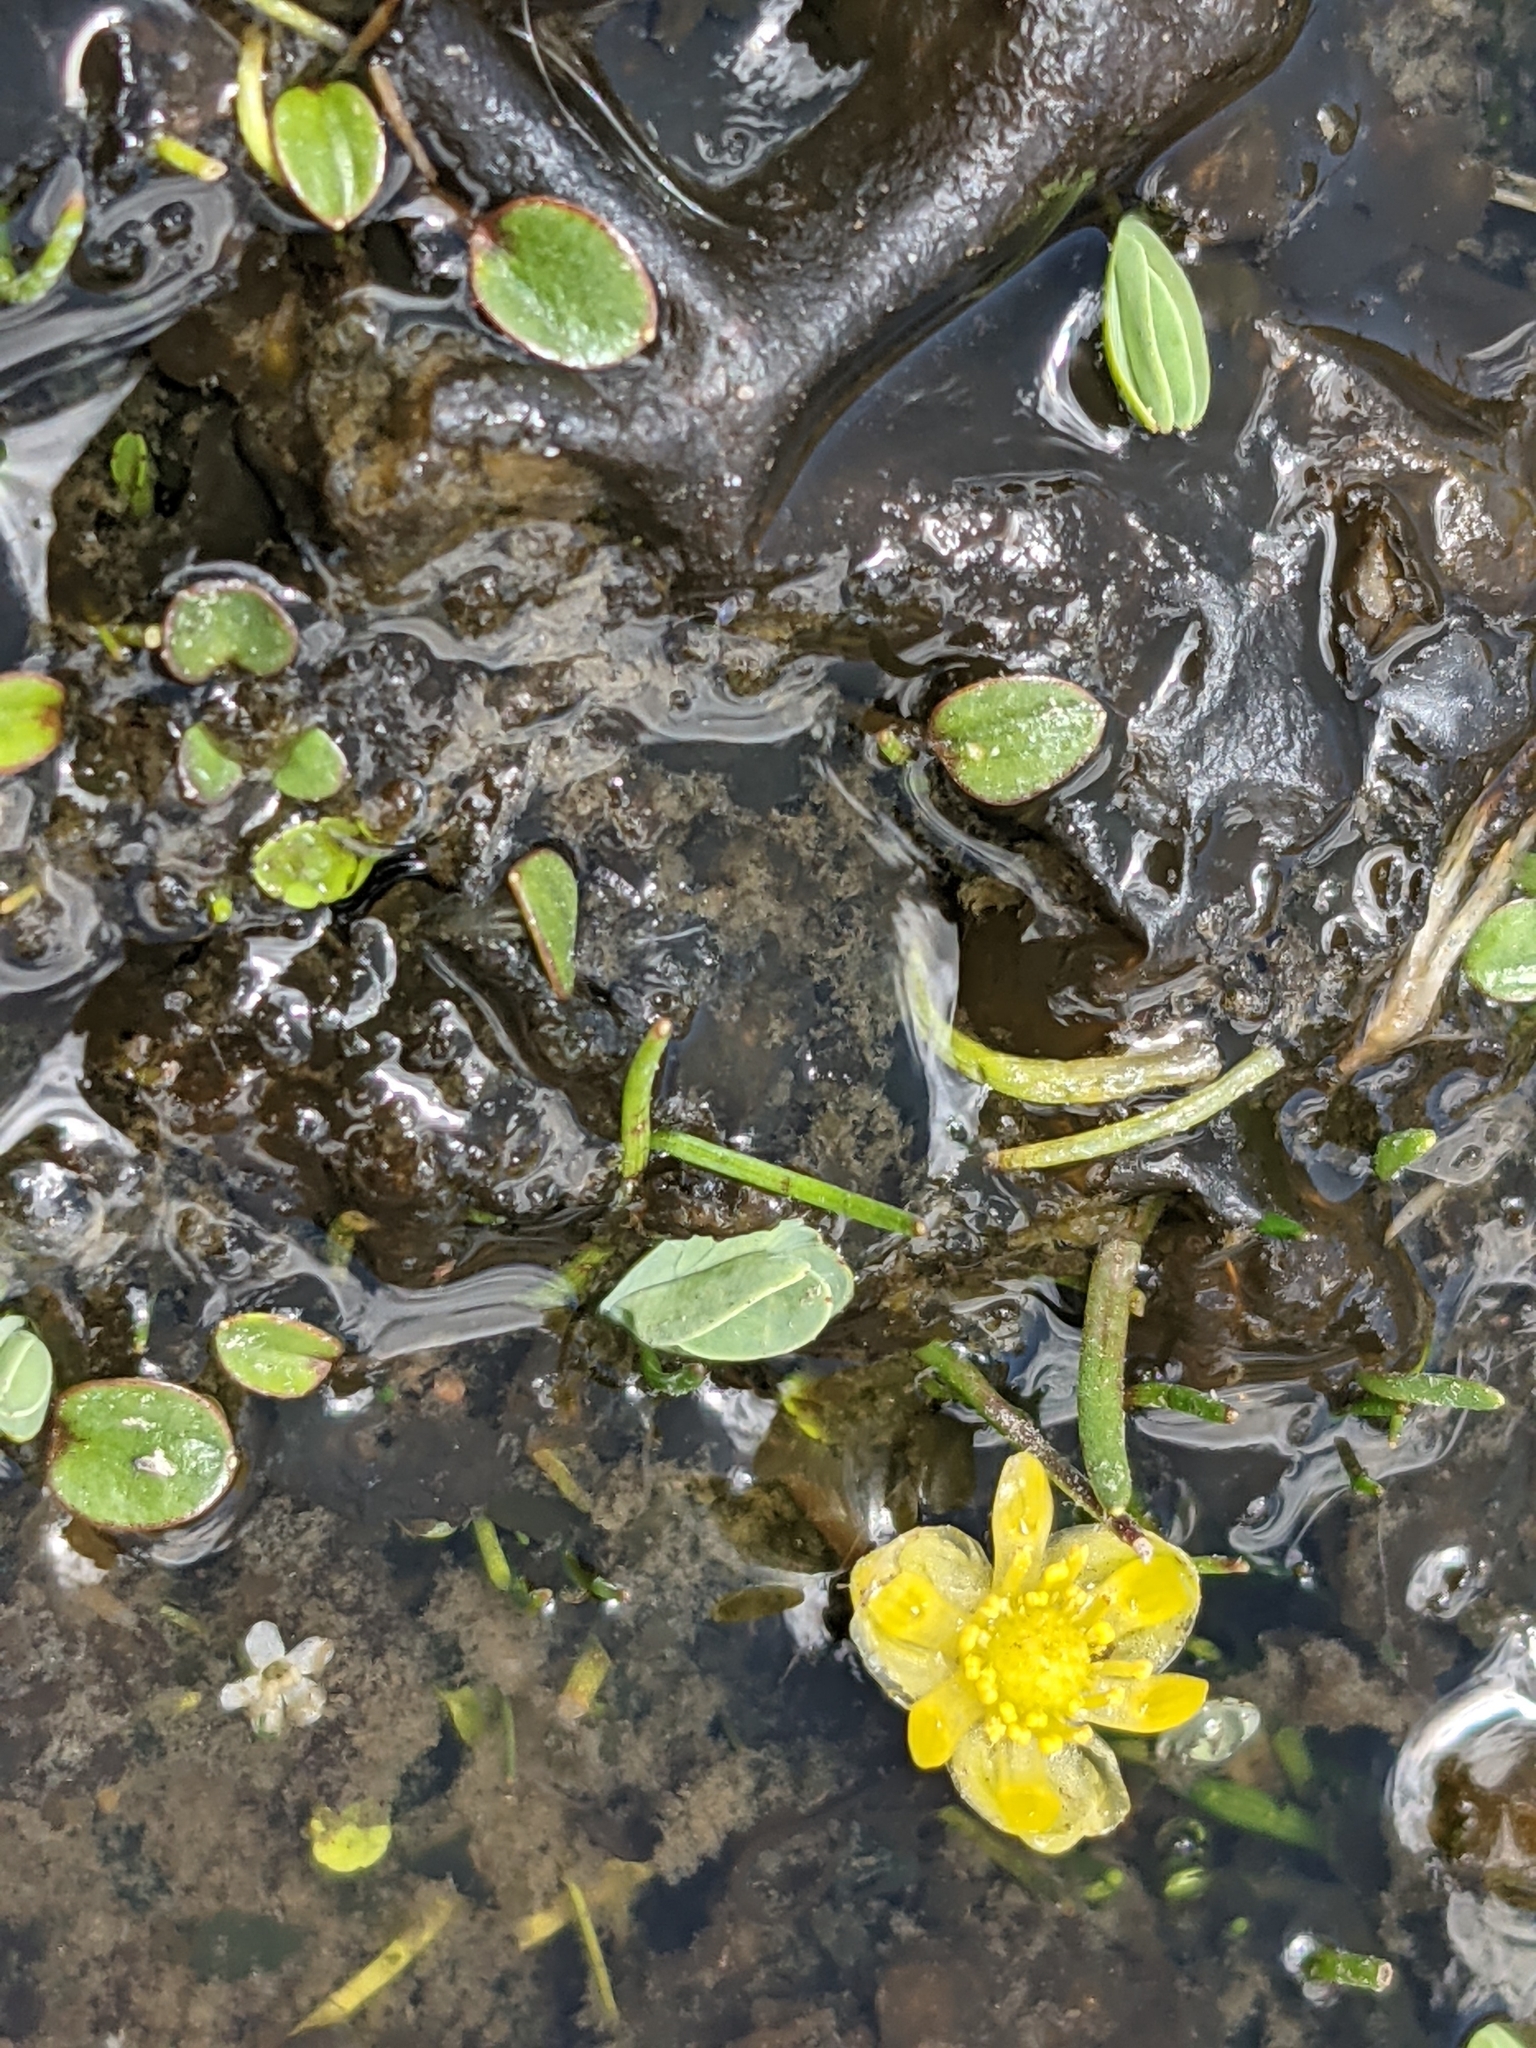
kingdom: Plantae
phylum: Tracheophyta
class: Magnoliopsida
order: Ranunculales
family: Ranunculaceae
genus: Halerpestes
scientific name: Halerpestes uniflora
